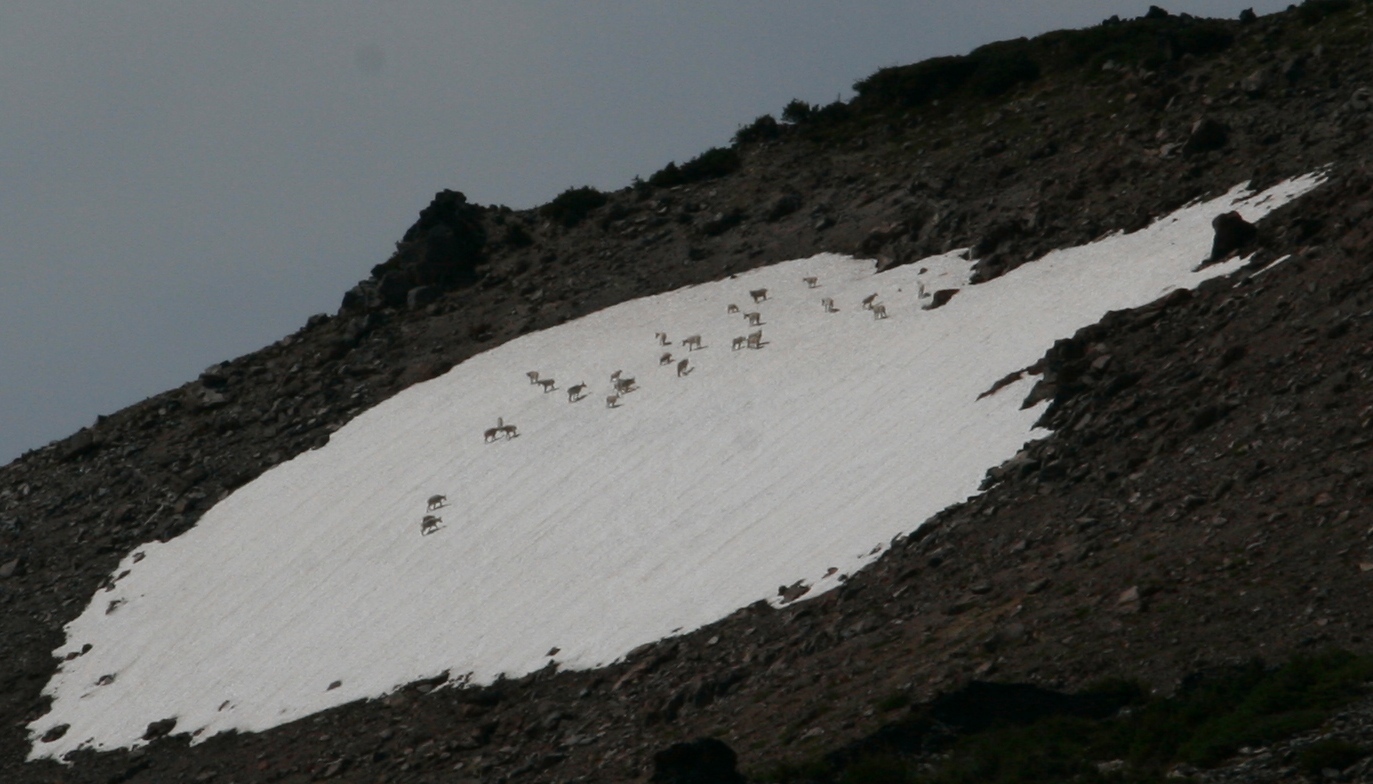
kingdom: Animalia
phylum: Chordata
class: Mammalia
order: Artiodactyla
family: Bovidae
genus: Oreamnos
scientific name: Oreamnos americanus
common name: Mountain goat
